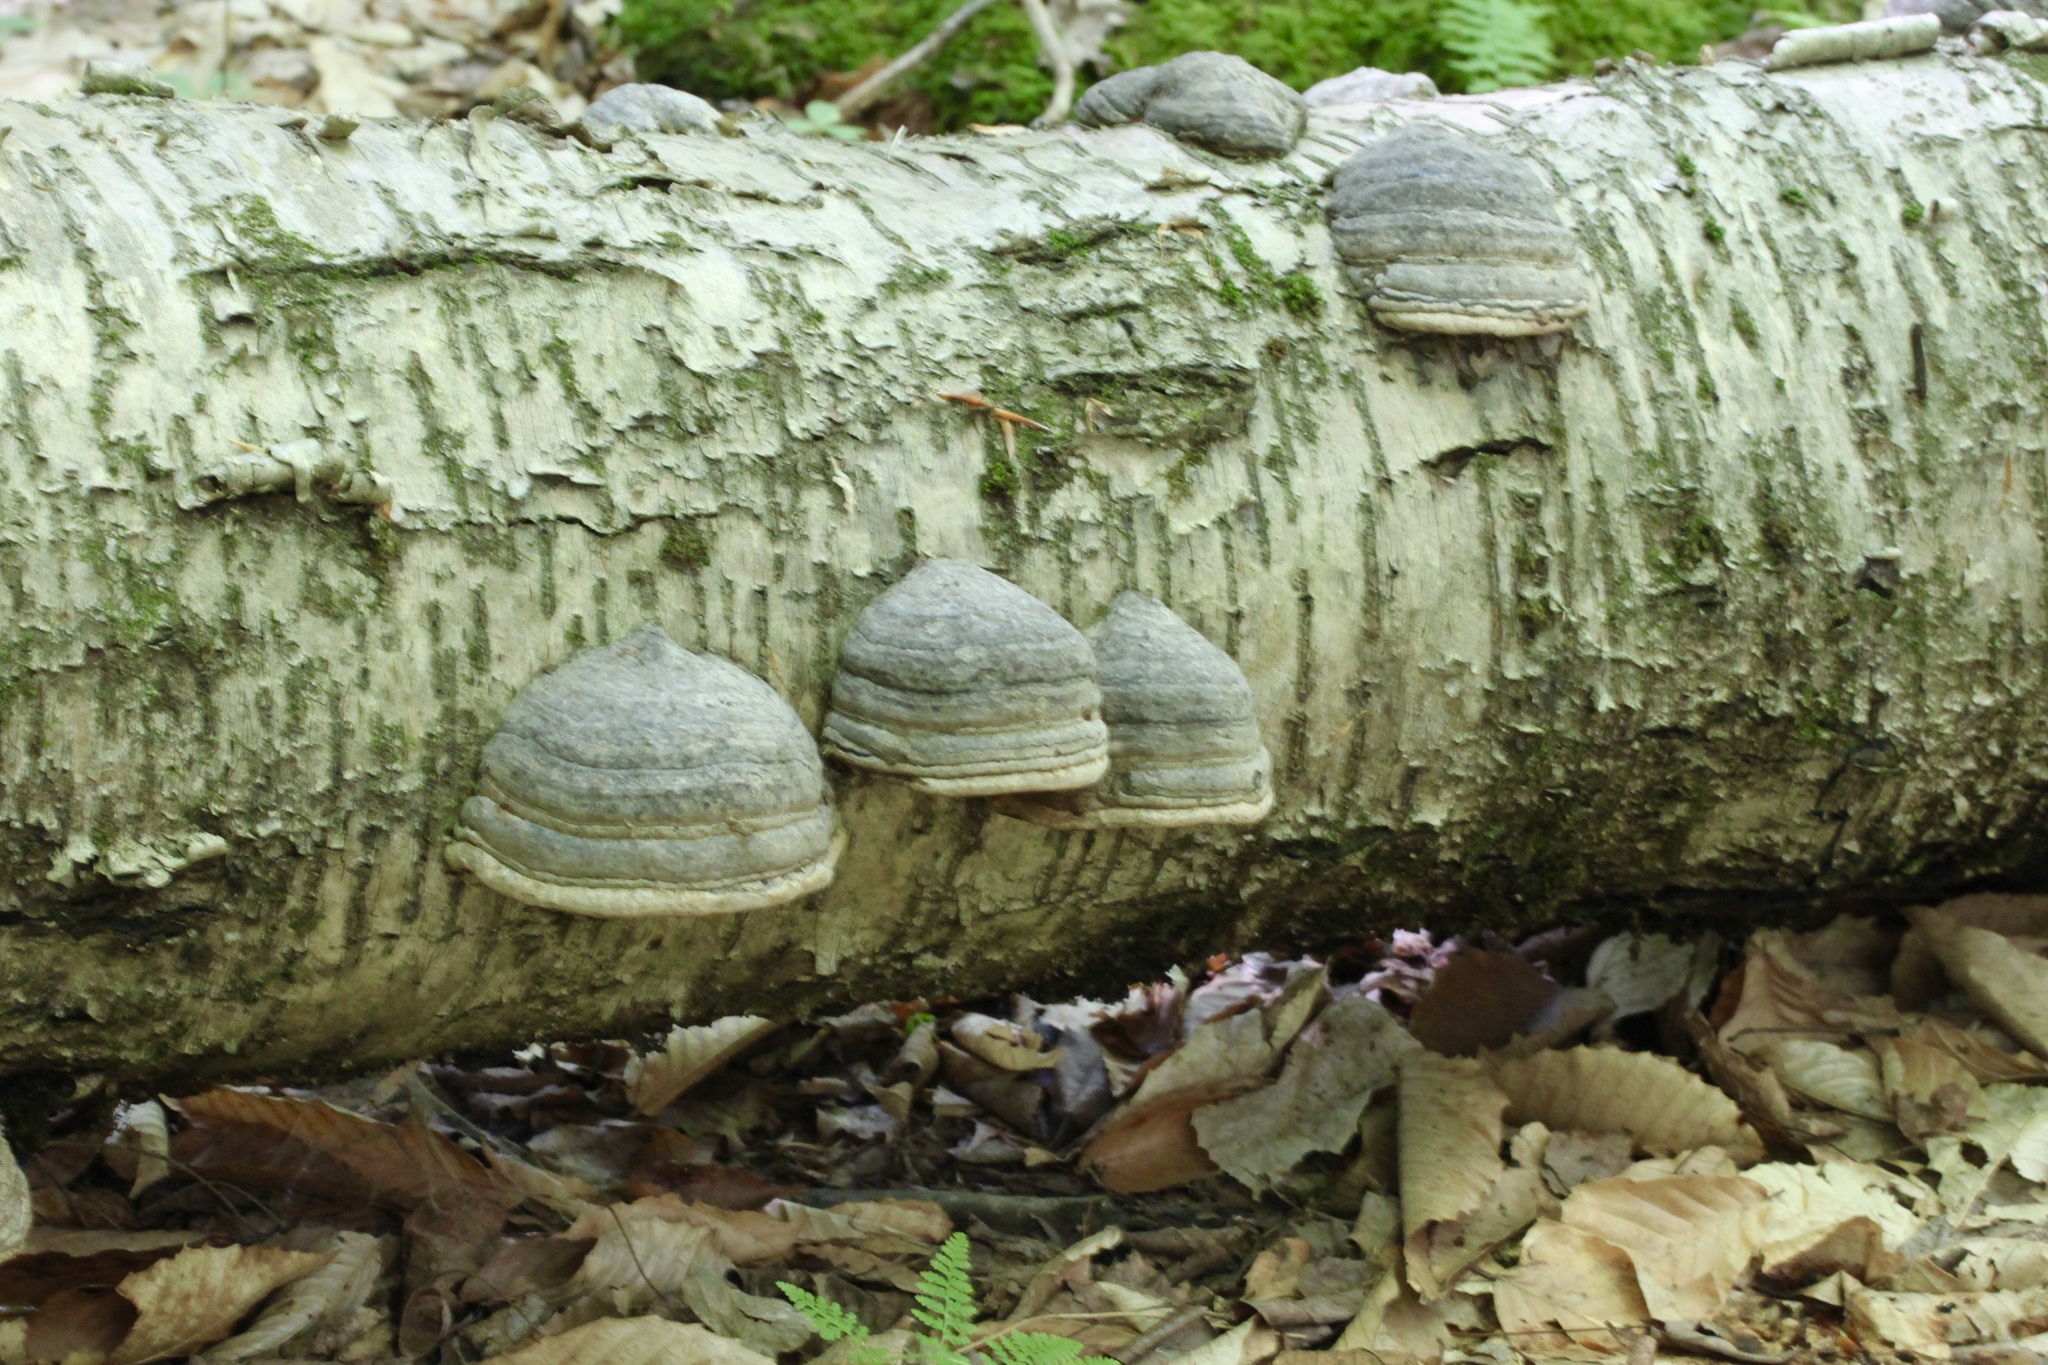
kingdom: Fungi
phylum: Basidiomycota
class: Agaricomycetes
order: Polyporales
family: Polyporaceae
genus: Fomes
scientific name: Fomes fomentarius
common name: Hoof fungus
